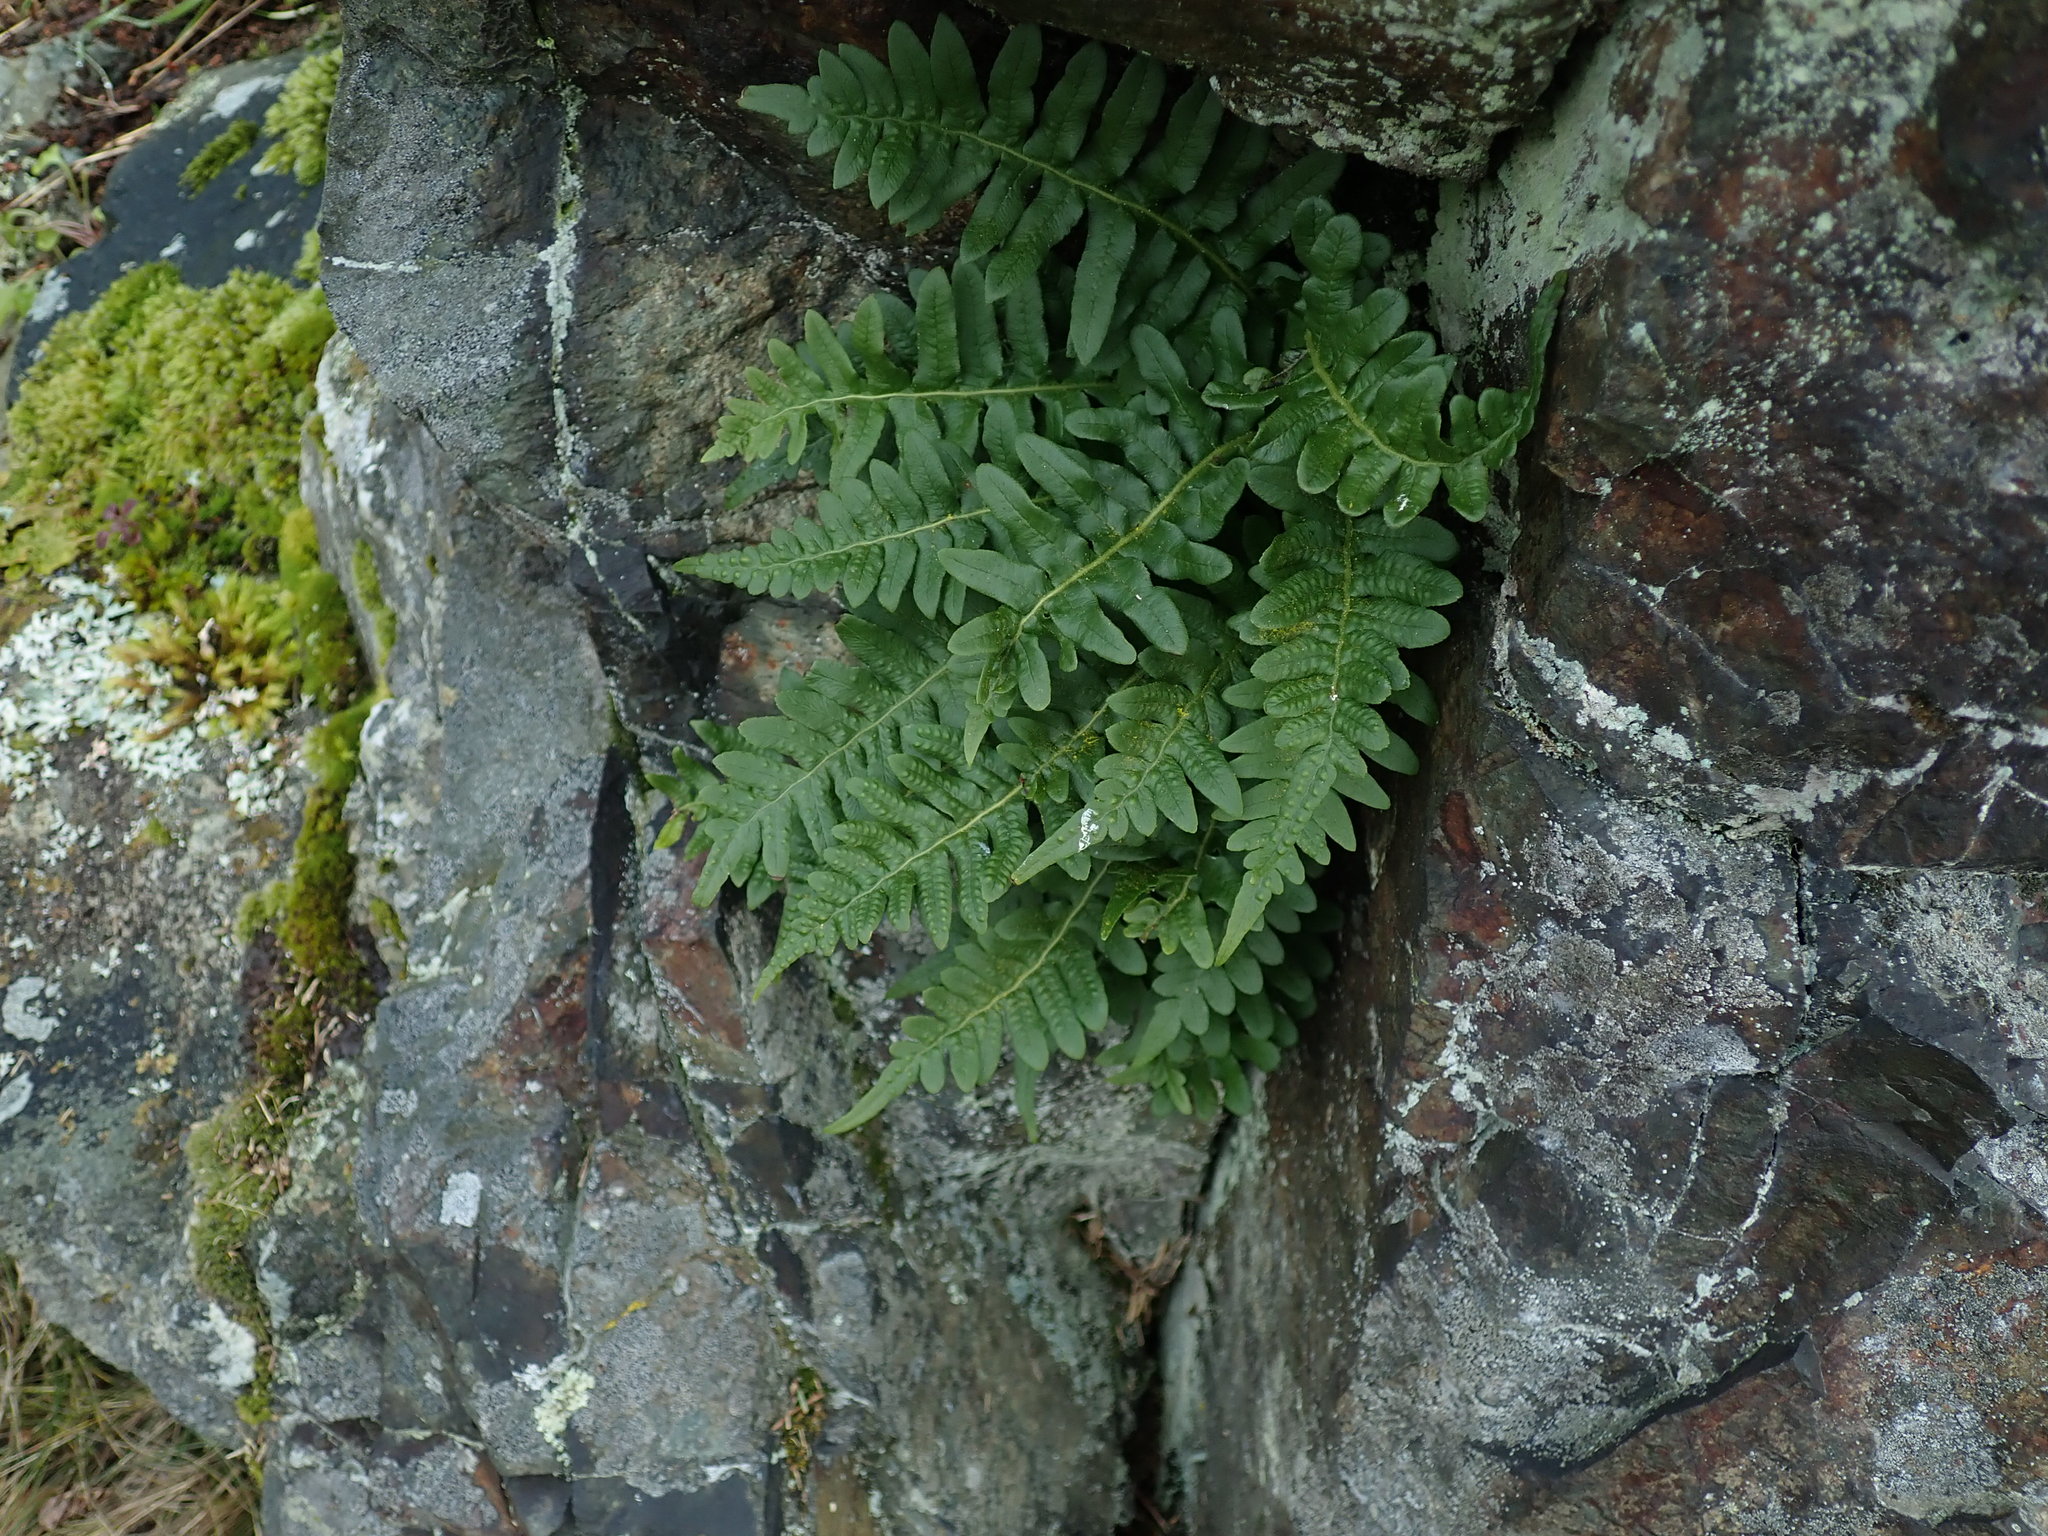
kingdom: Plantae
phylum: Tracheophyta
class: Polypodiopsida
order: Polypodiales
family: Polypodiaceae
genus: Polypodium
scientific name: Polypodium glycyrrhiza
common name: Licorice fern
